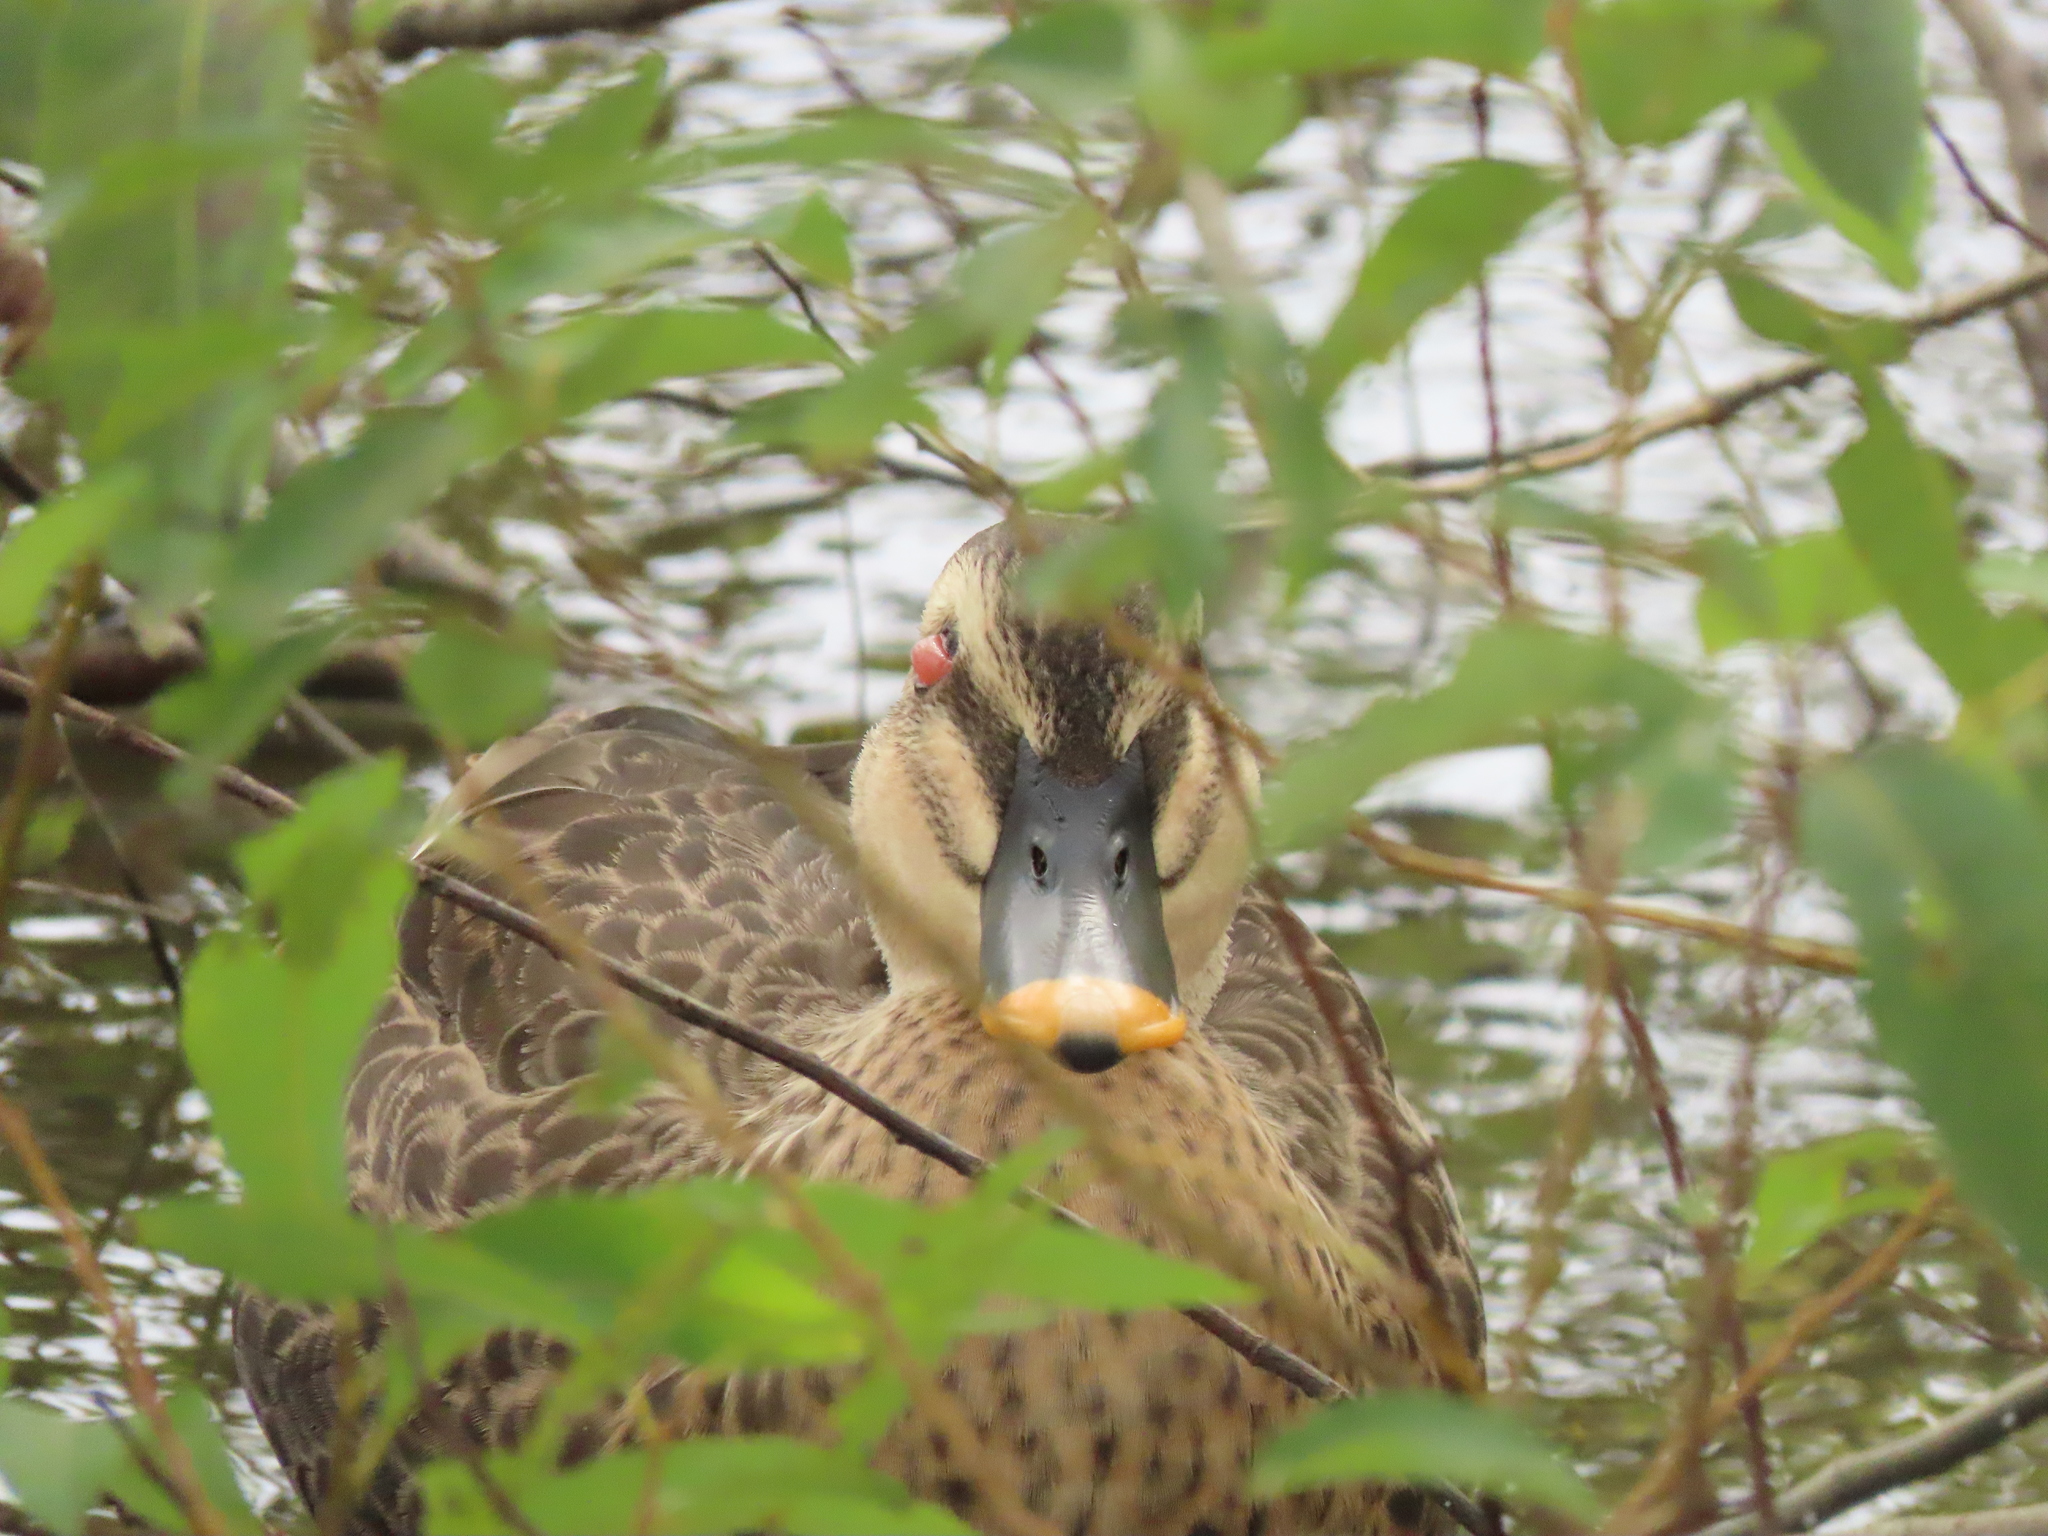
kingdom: Animalia
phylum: Chordata
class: Aves
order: Anseriformes
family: Anatidae
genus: Anas
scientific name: Anas zonorhyncha
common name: Eastern spot-billed duck
